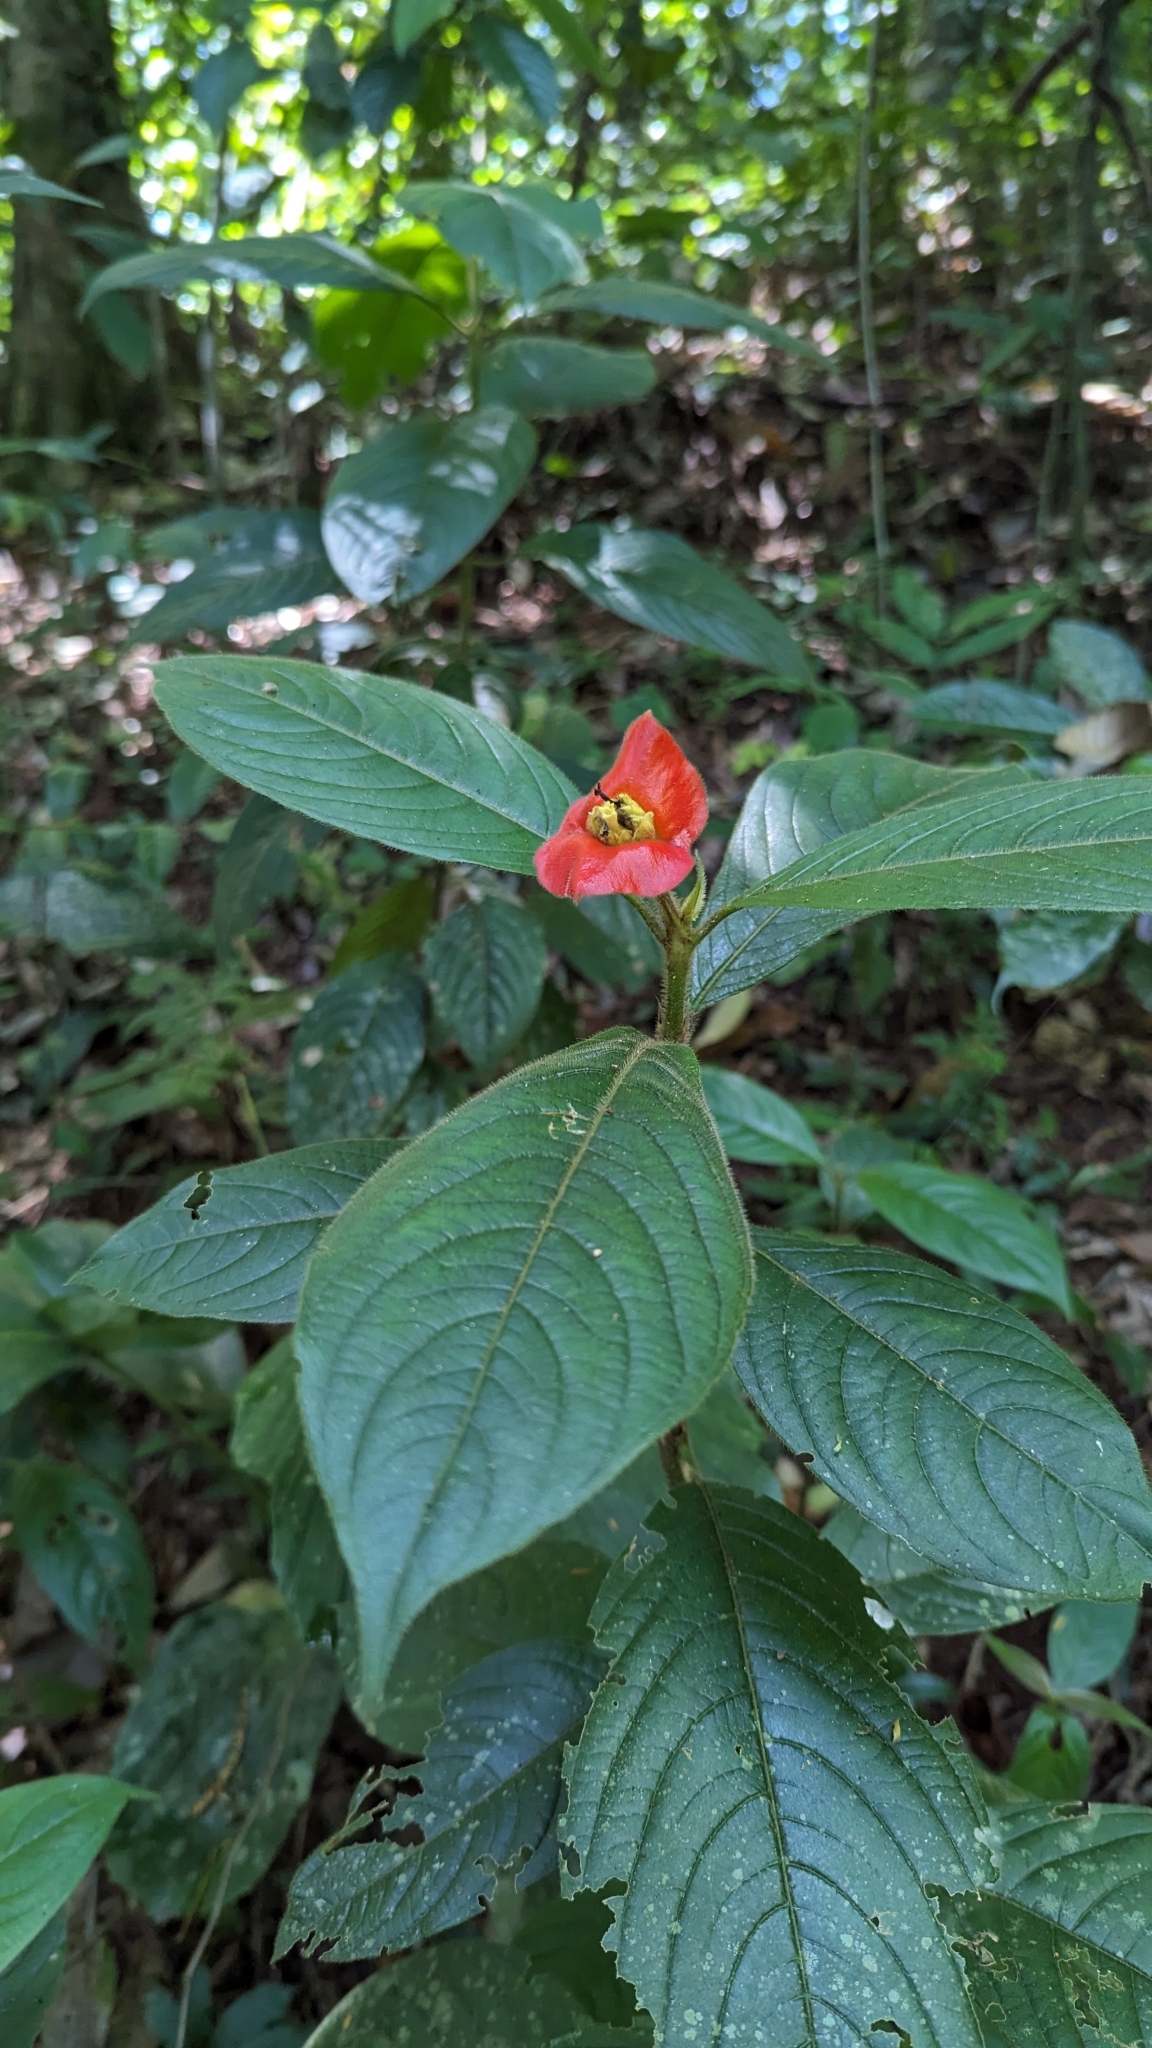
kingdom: Plantae
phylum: Tracheophyta
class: Magnoliopsida
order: Gentianales
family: Rubiaceae
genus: Palicourea
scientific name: Palicourea tomentosa
